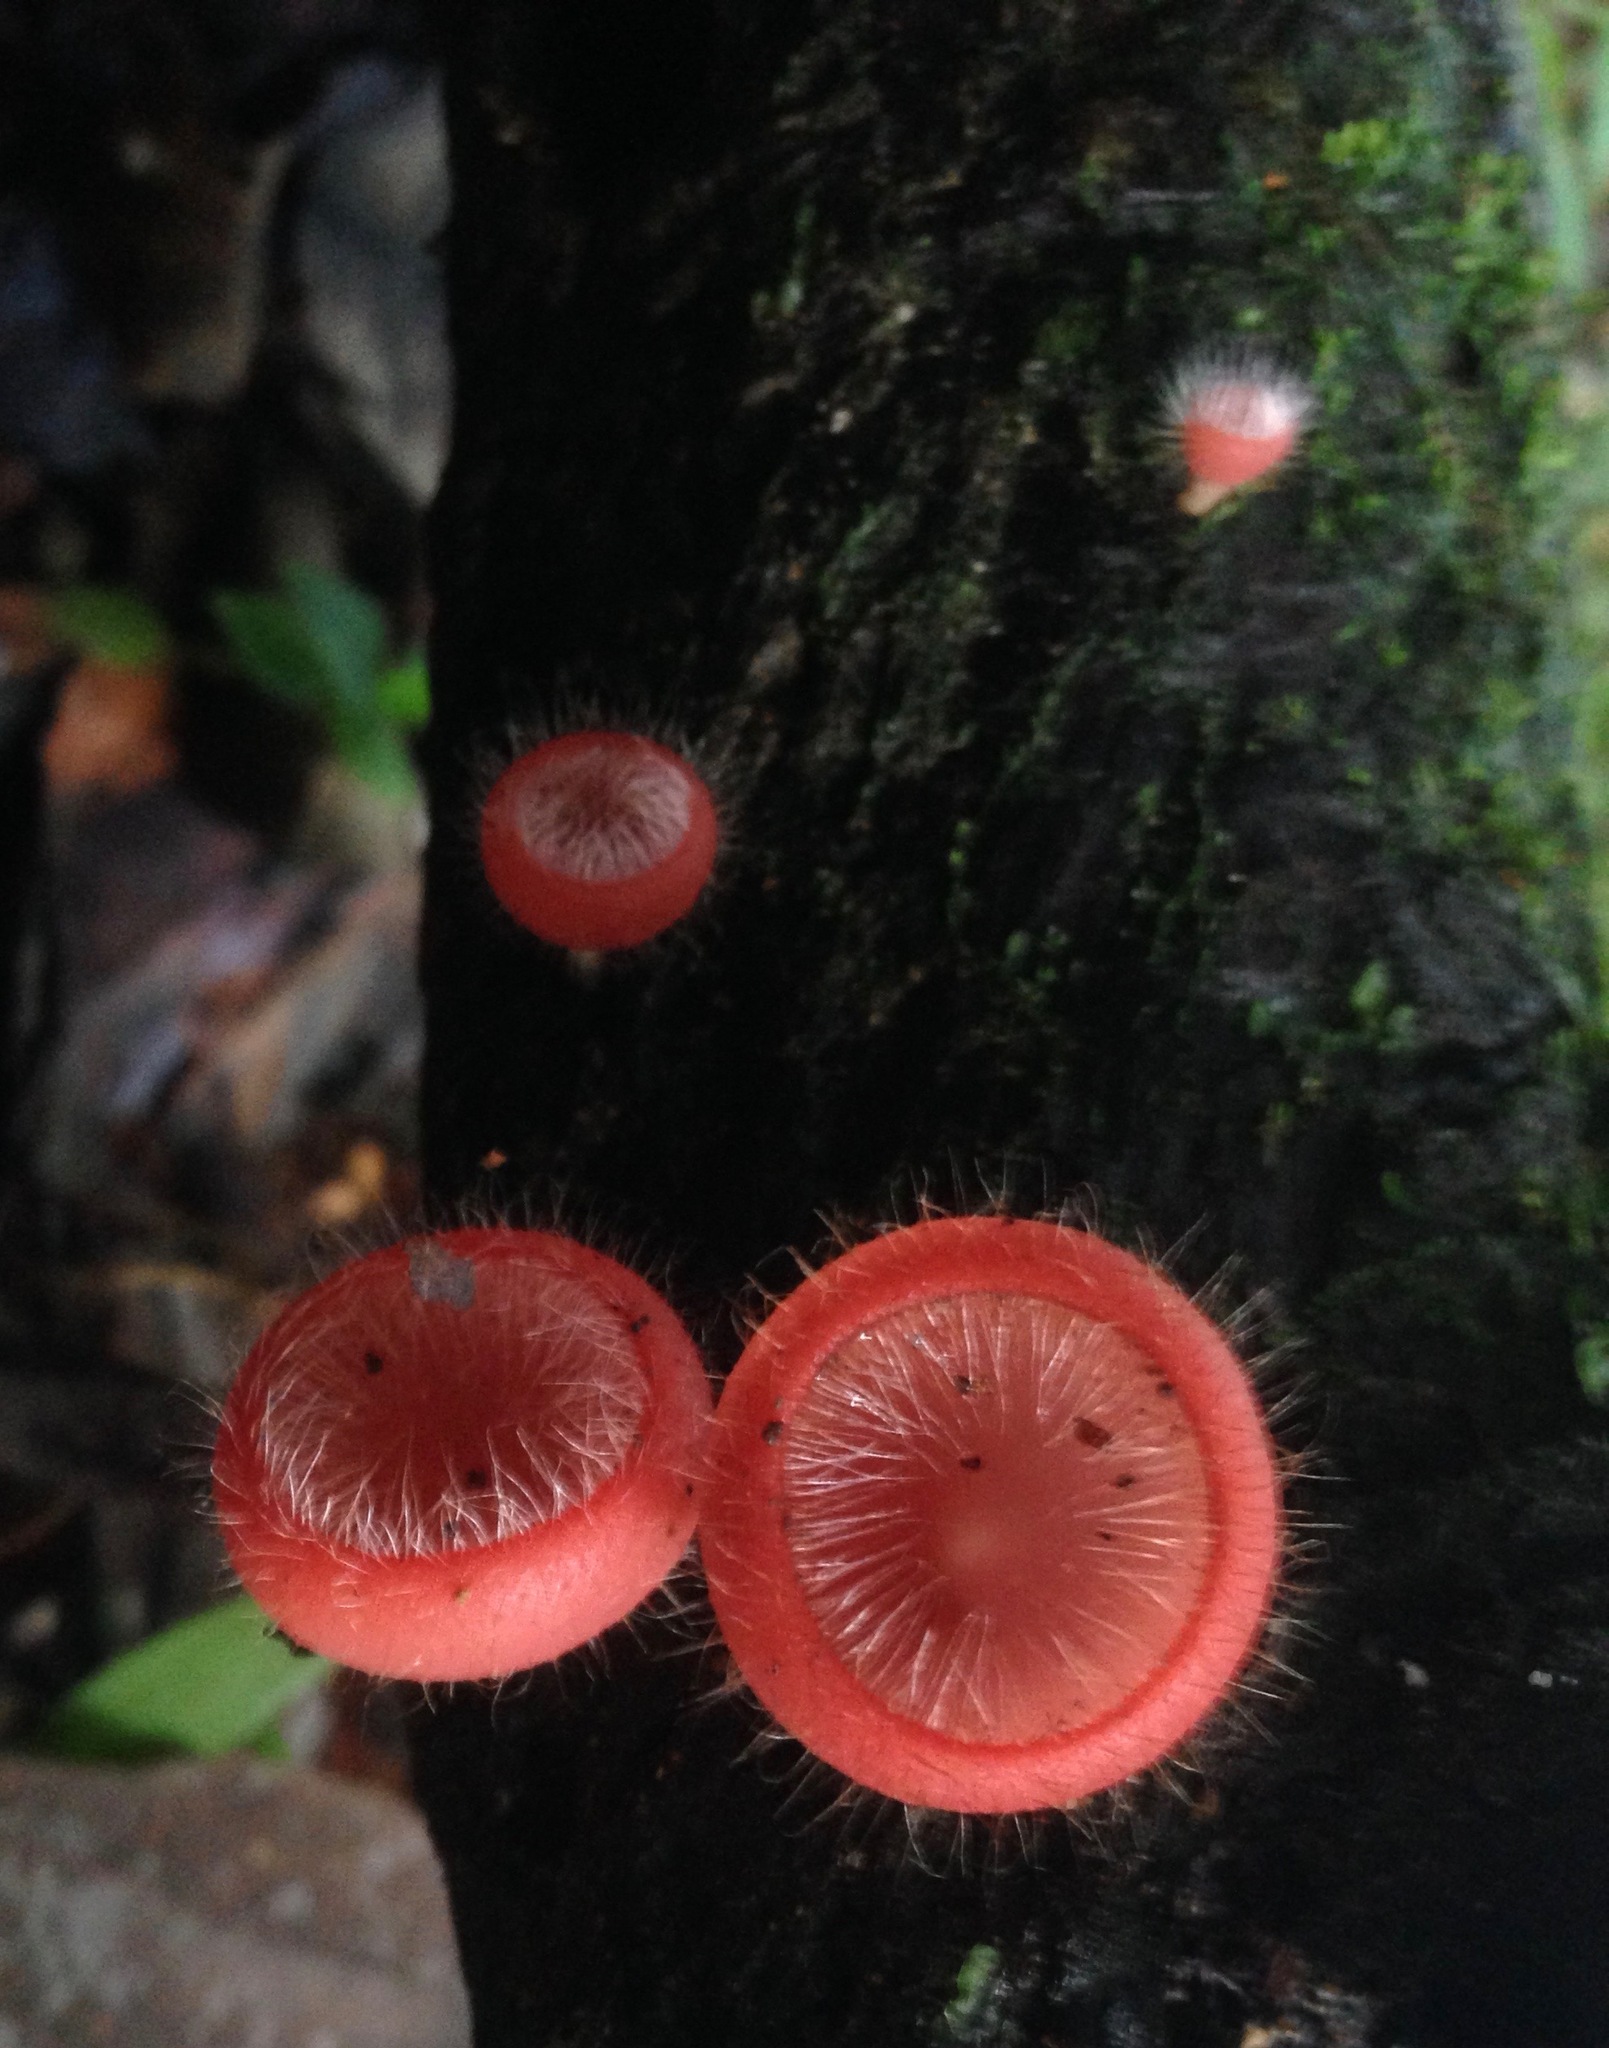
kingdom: Fungi
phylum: Ascomycota
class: Pezizomycetes
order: Pezizales
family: Sarcoscyphaceae
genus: Cookeina
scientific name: Cookeina tricholoma
